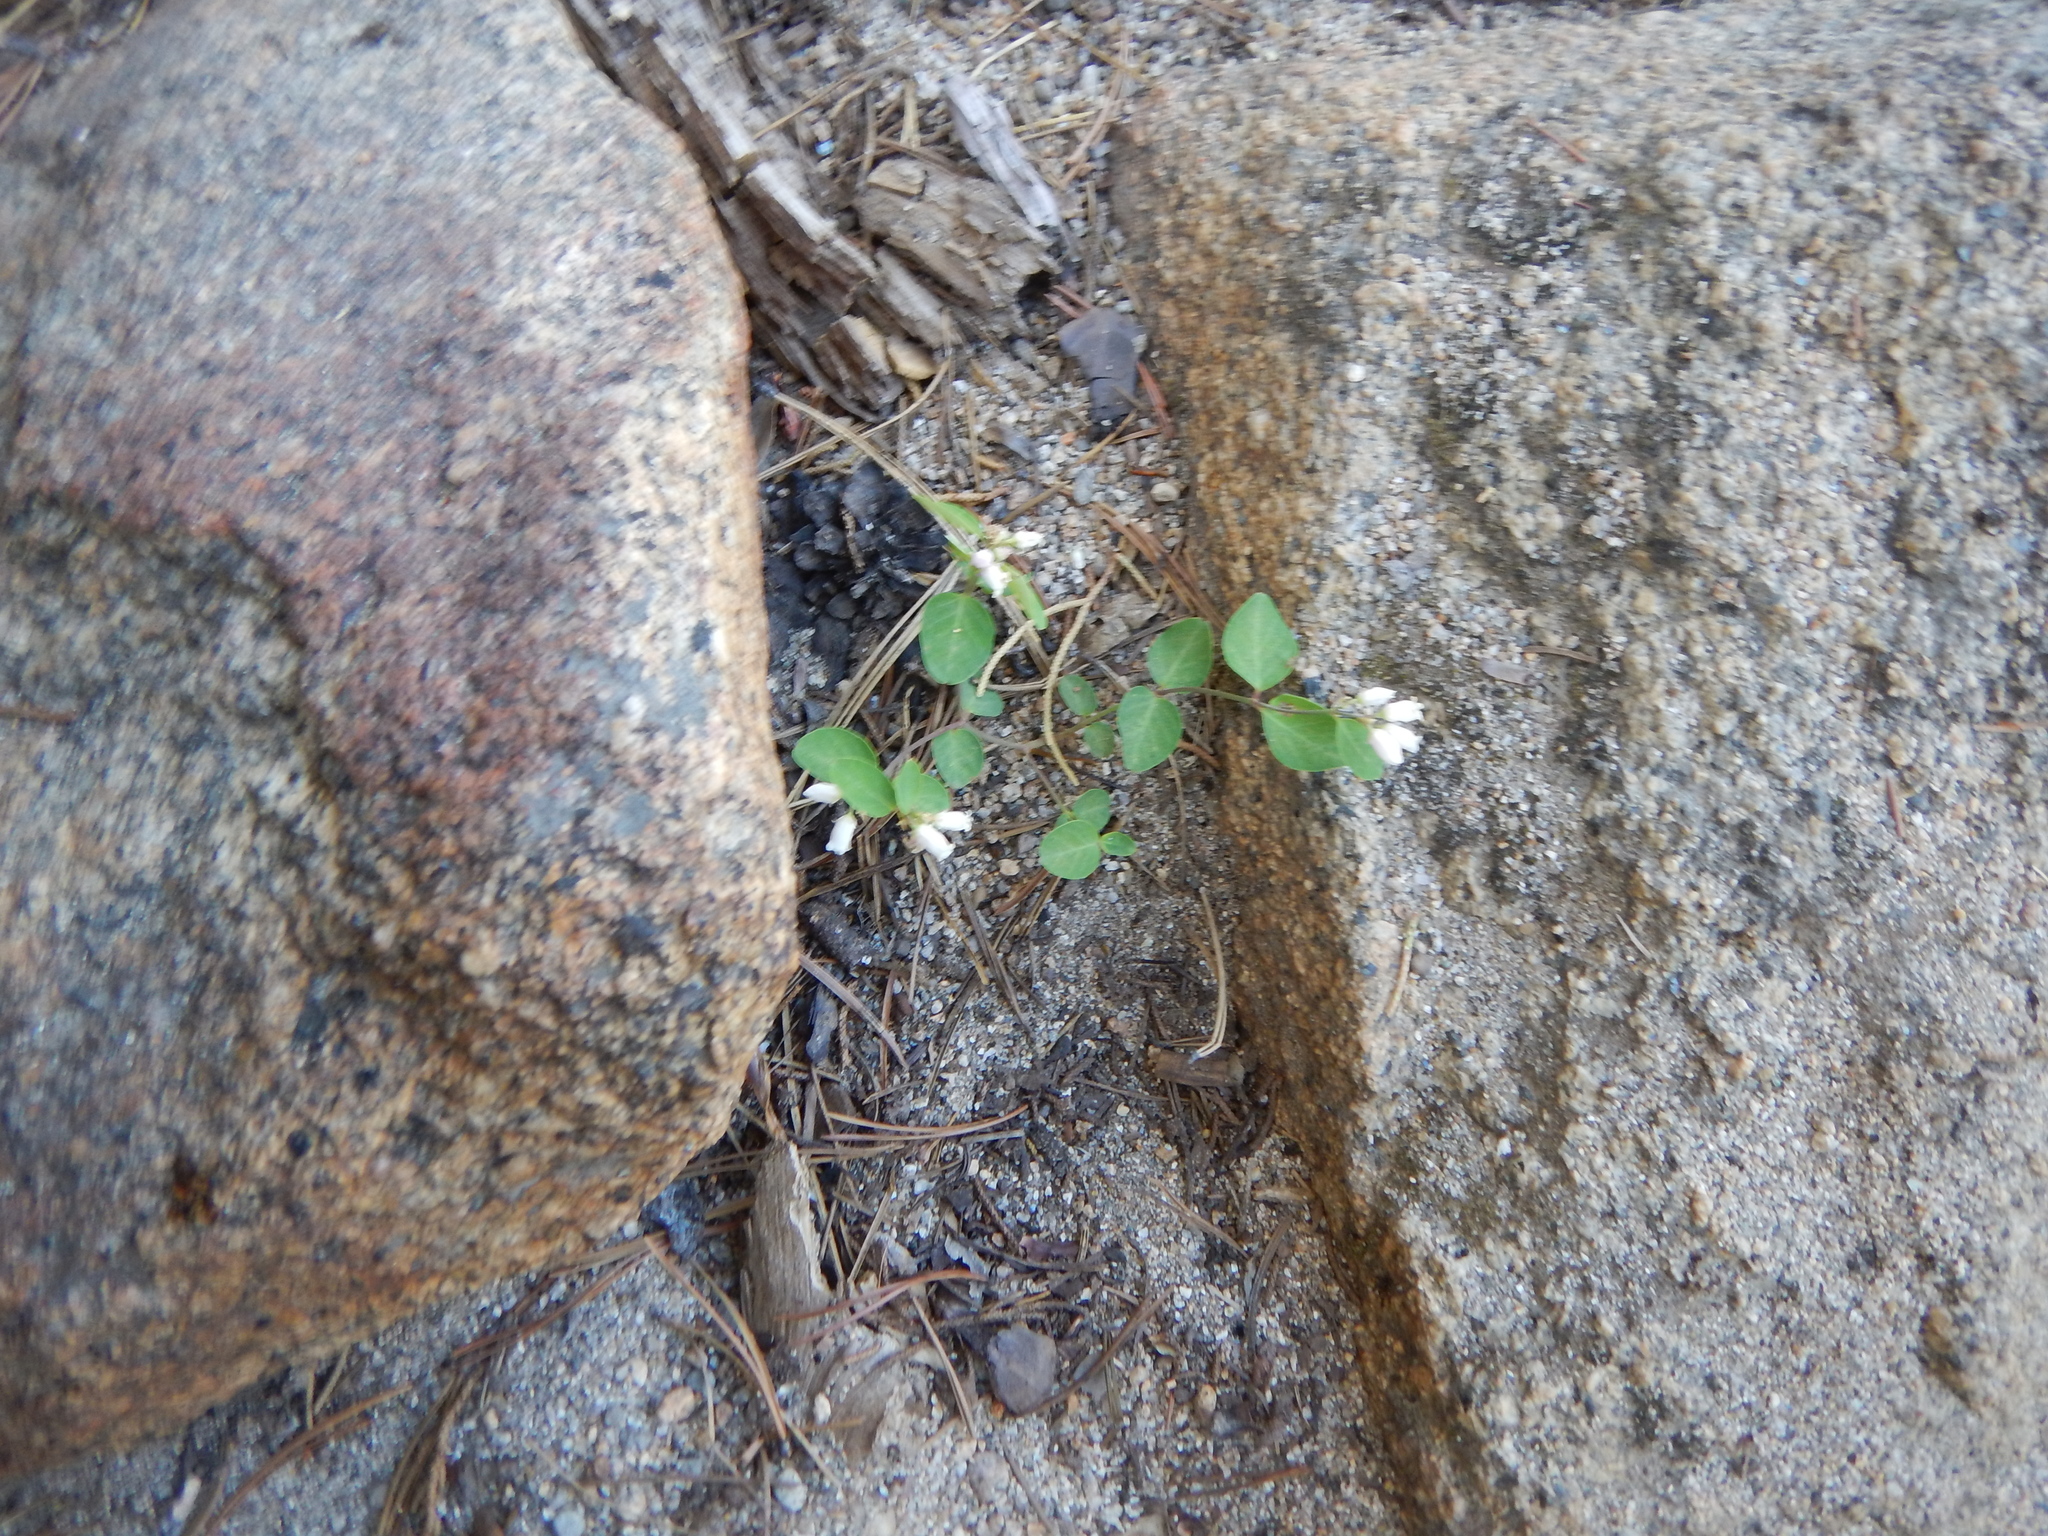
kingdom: Plantae
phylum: Tracheophyta
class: Magnoliopsida
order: Gentianales
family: Apocynaceae
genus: Apocynum
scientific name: Apocynum androsaemifolium
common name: Spreading dogbane
